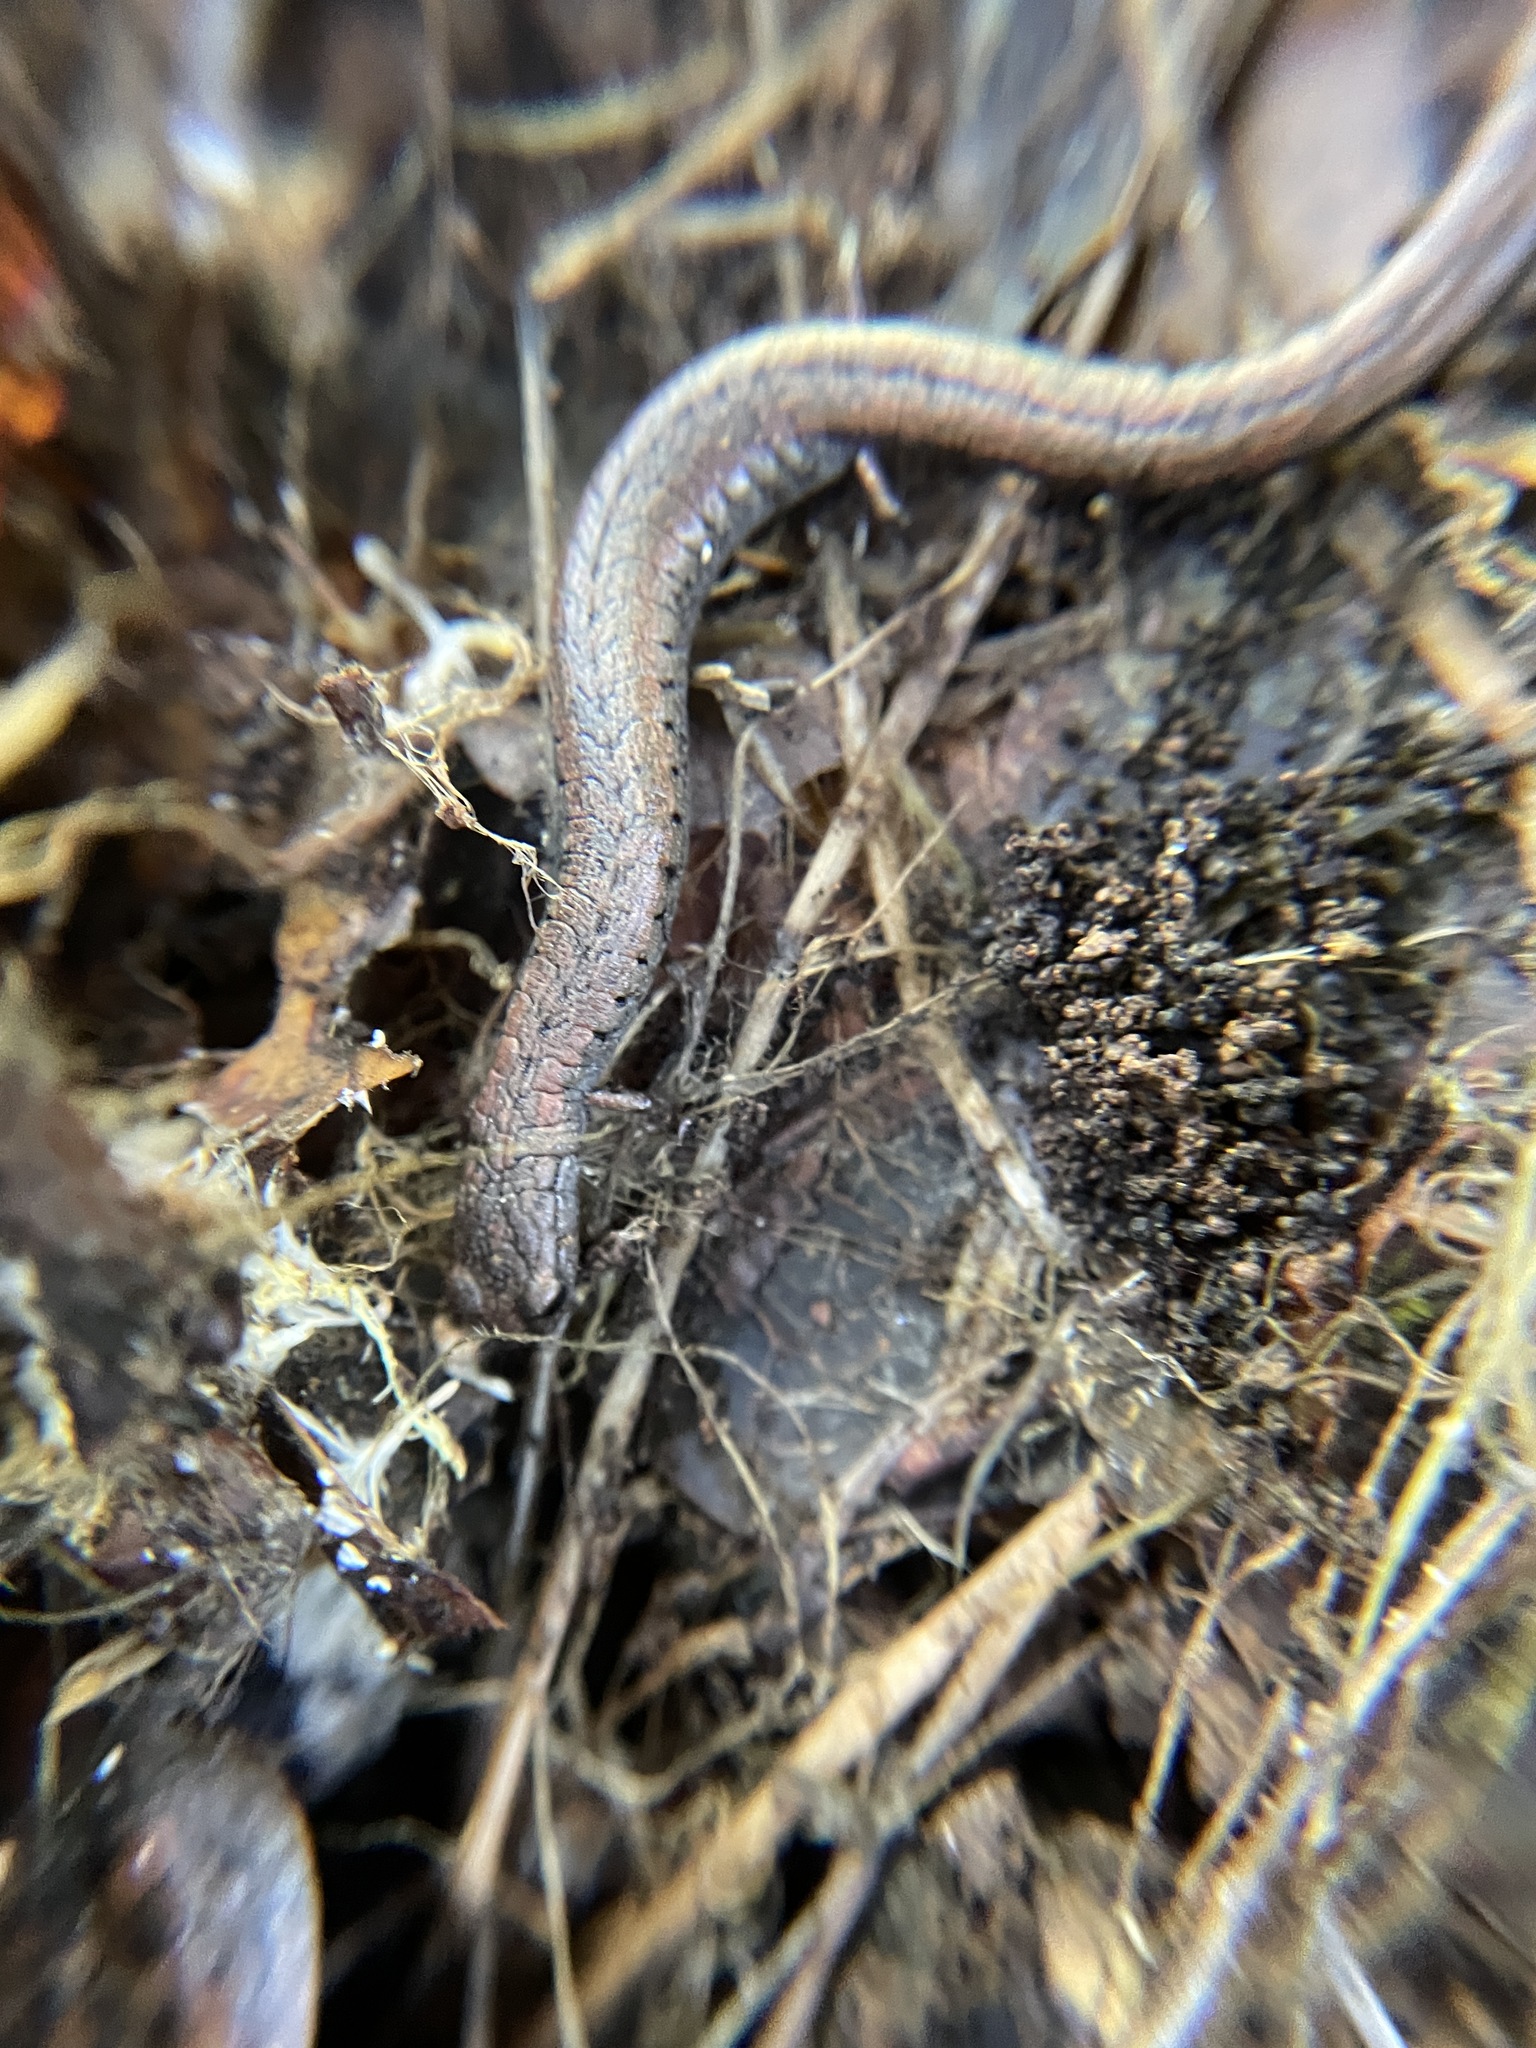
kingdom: Animalia
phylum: Chordata
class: Amphibia
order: Caudata
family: Plethodontidae
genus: Batrachoseps
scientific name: Batrachoseps attenuatus
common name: California slender salamander
